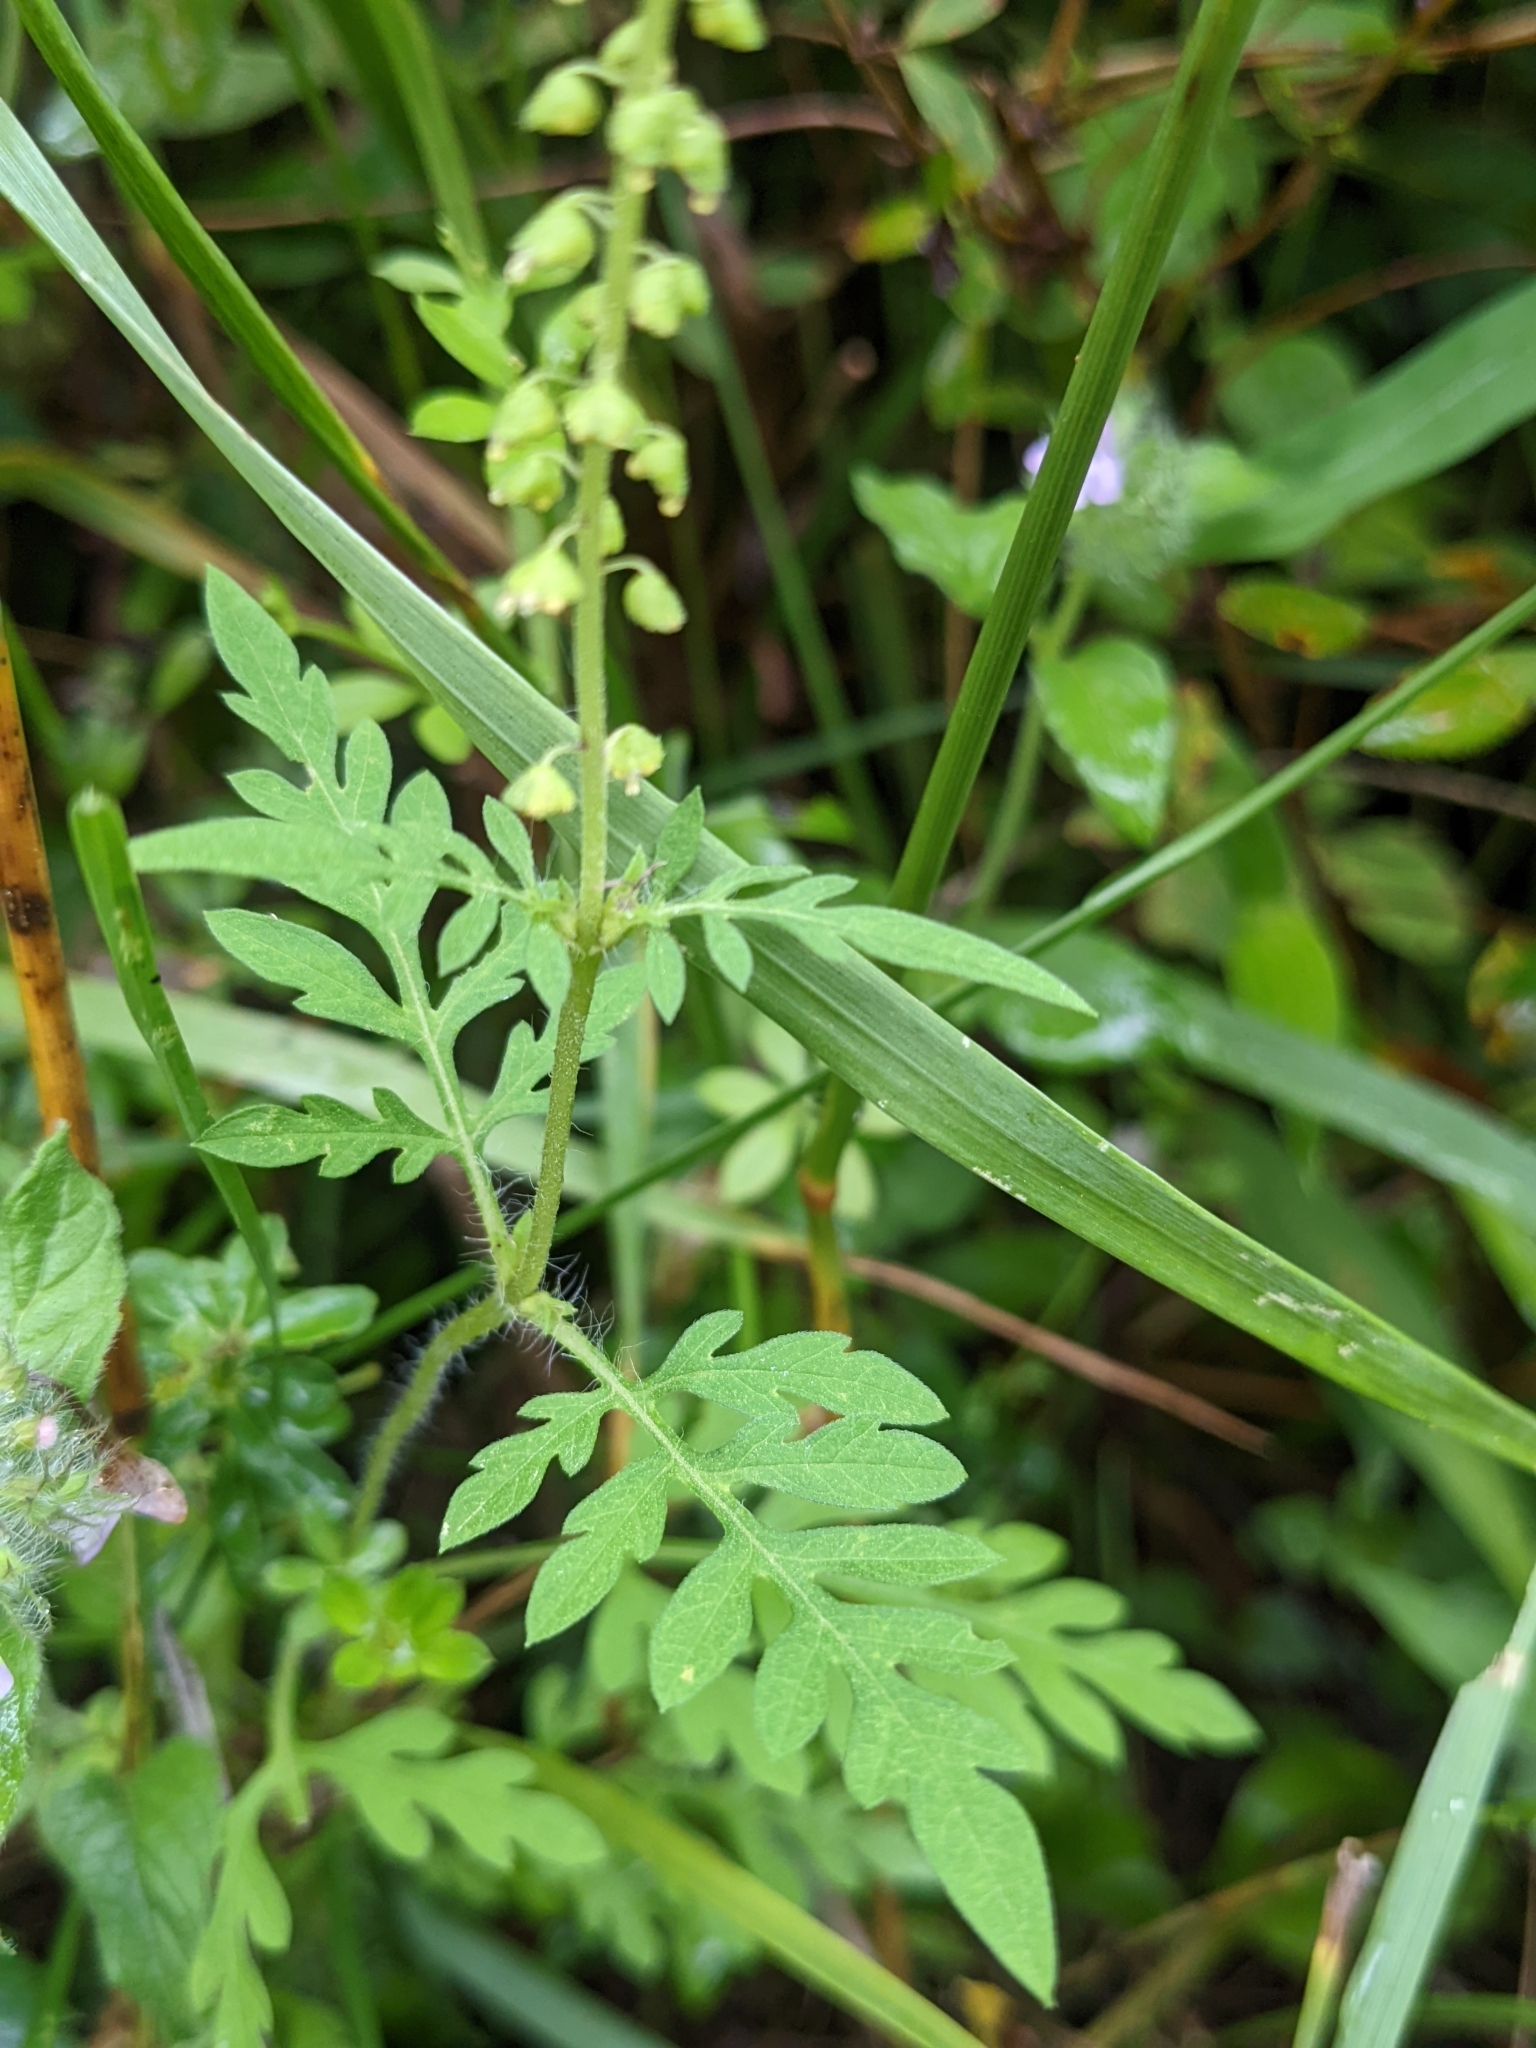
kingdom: Plantae
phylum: Tracheophyta
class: Magnoliopsida
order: Asterales
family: Asteraceae
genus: Ambrosia
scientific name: Ambrosia artemisiifolia
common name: Annual ragweed
